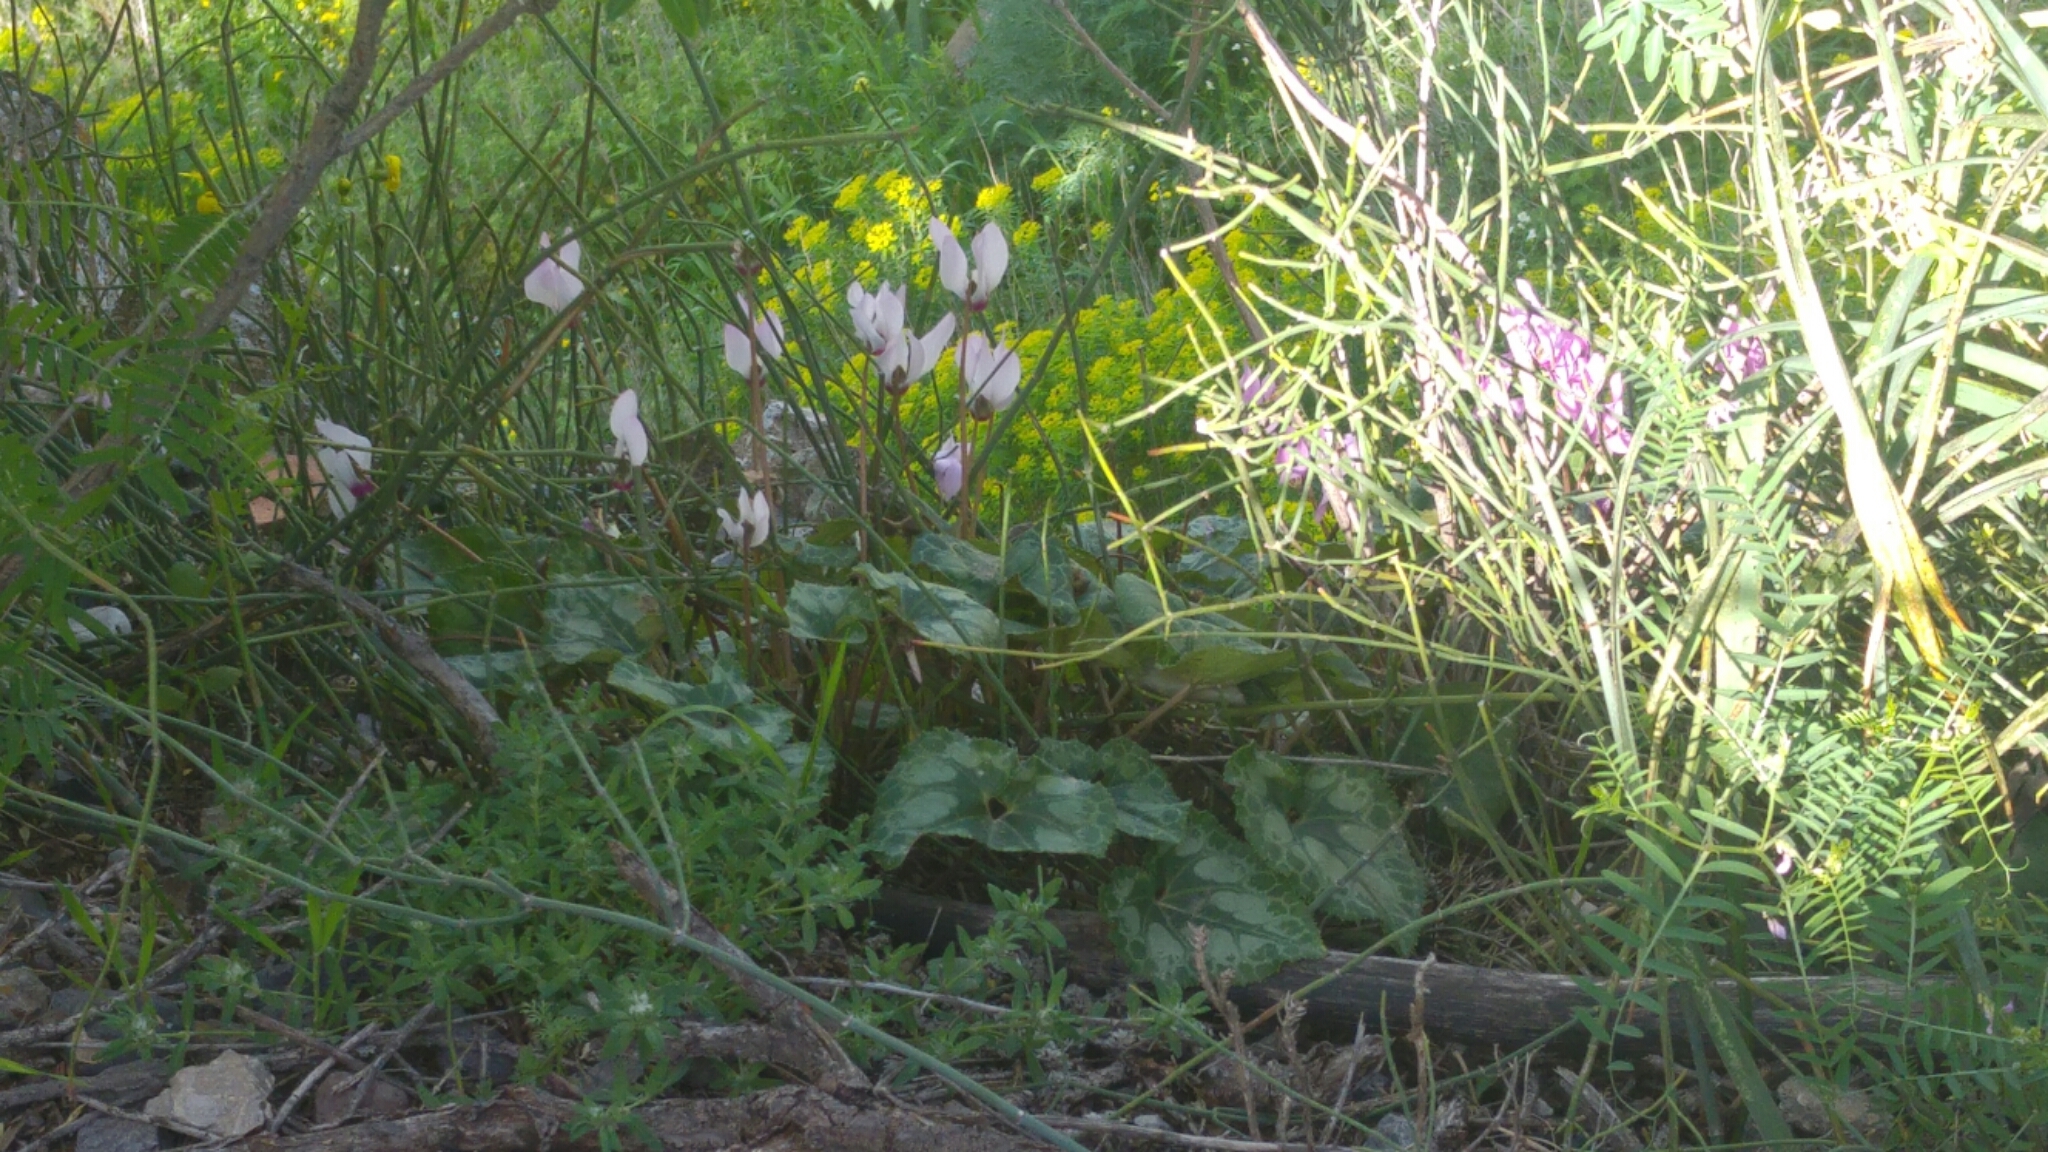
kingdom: Plantae
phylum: Tracheophyta
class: Magnoliopsida
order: Ericales
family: Primulaceae
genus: Cyclamen
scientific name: Cyclamen persicum
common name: Florist's cyclamen
